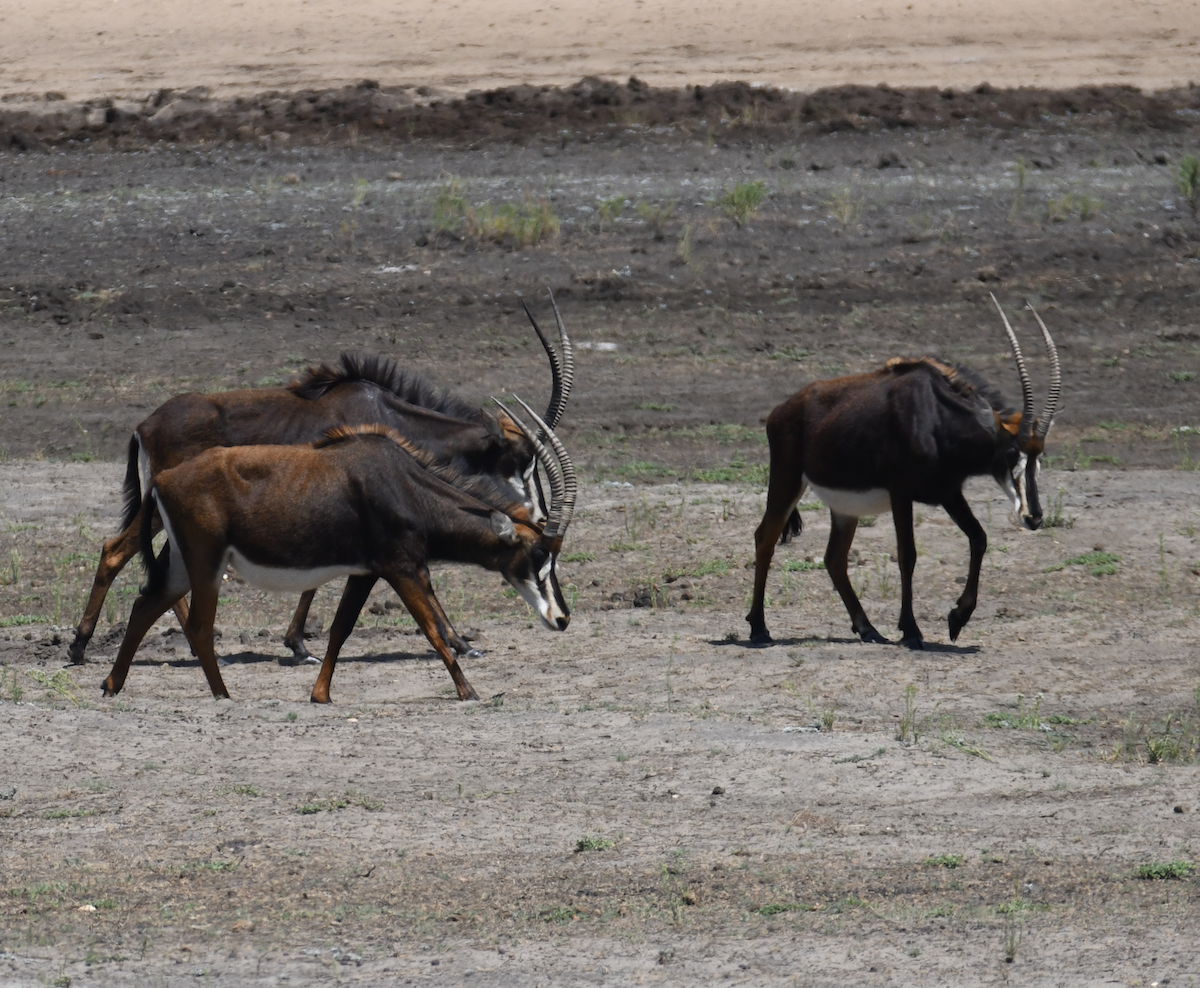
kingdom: Animalia
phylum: Chordata
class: Mammalia
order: Artiodactyla
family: Bovidae
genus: Hippotragus
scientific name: Hippotragus niger
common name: Sable antelope
